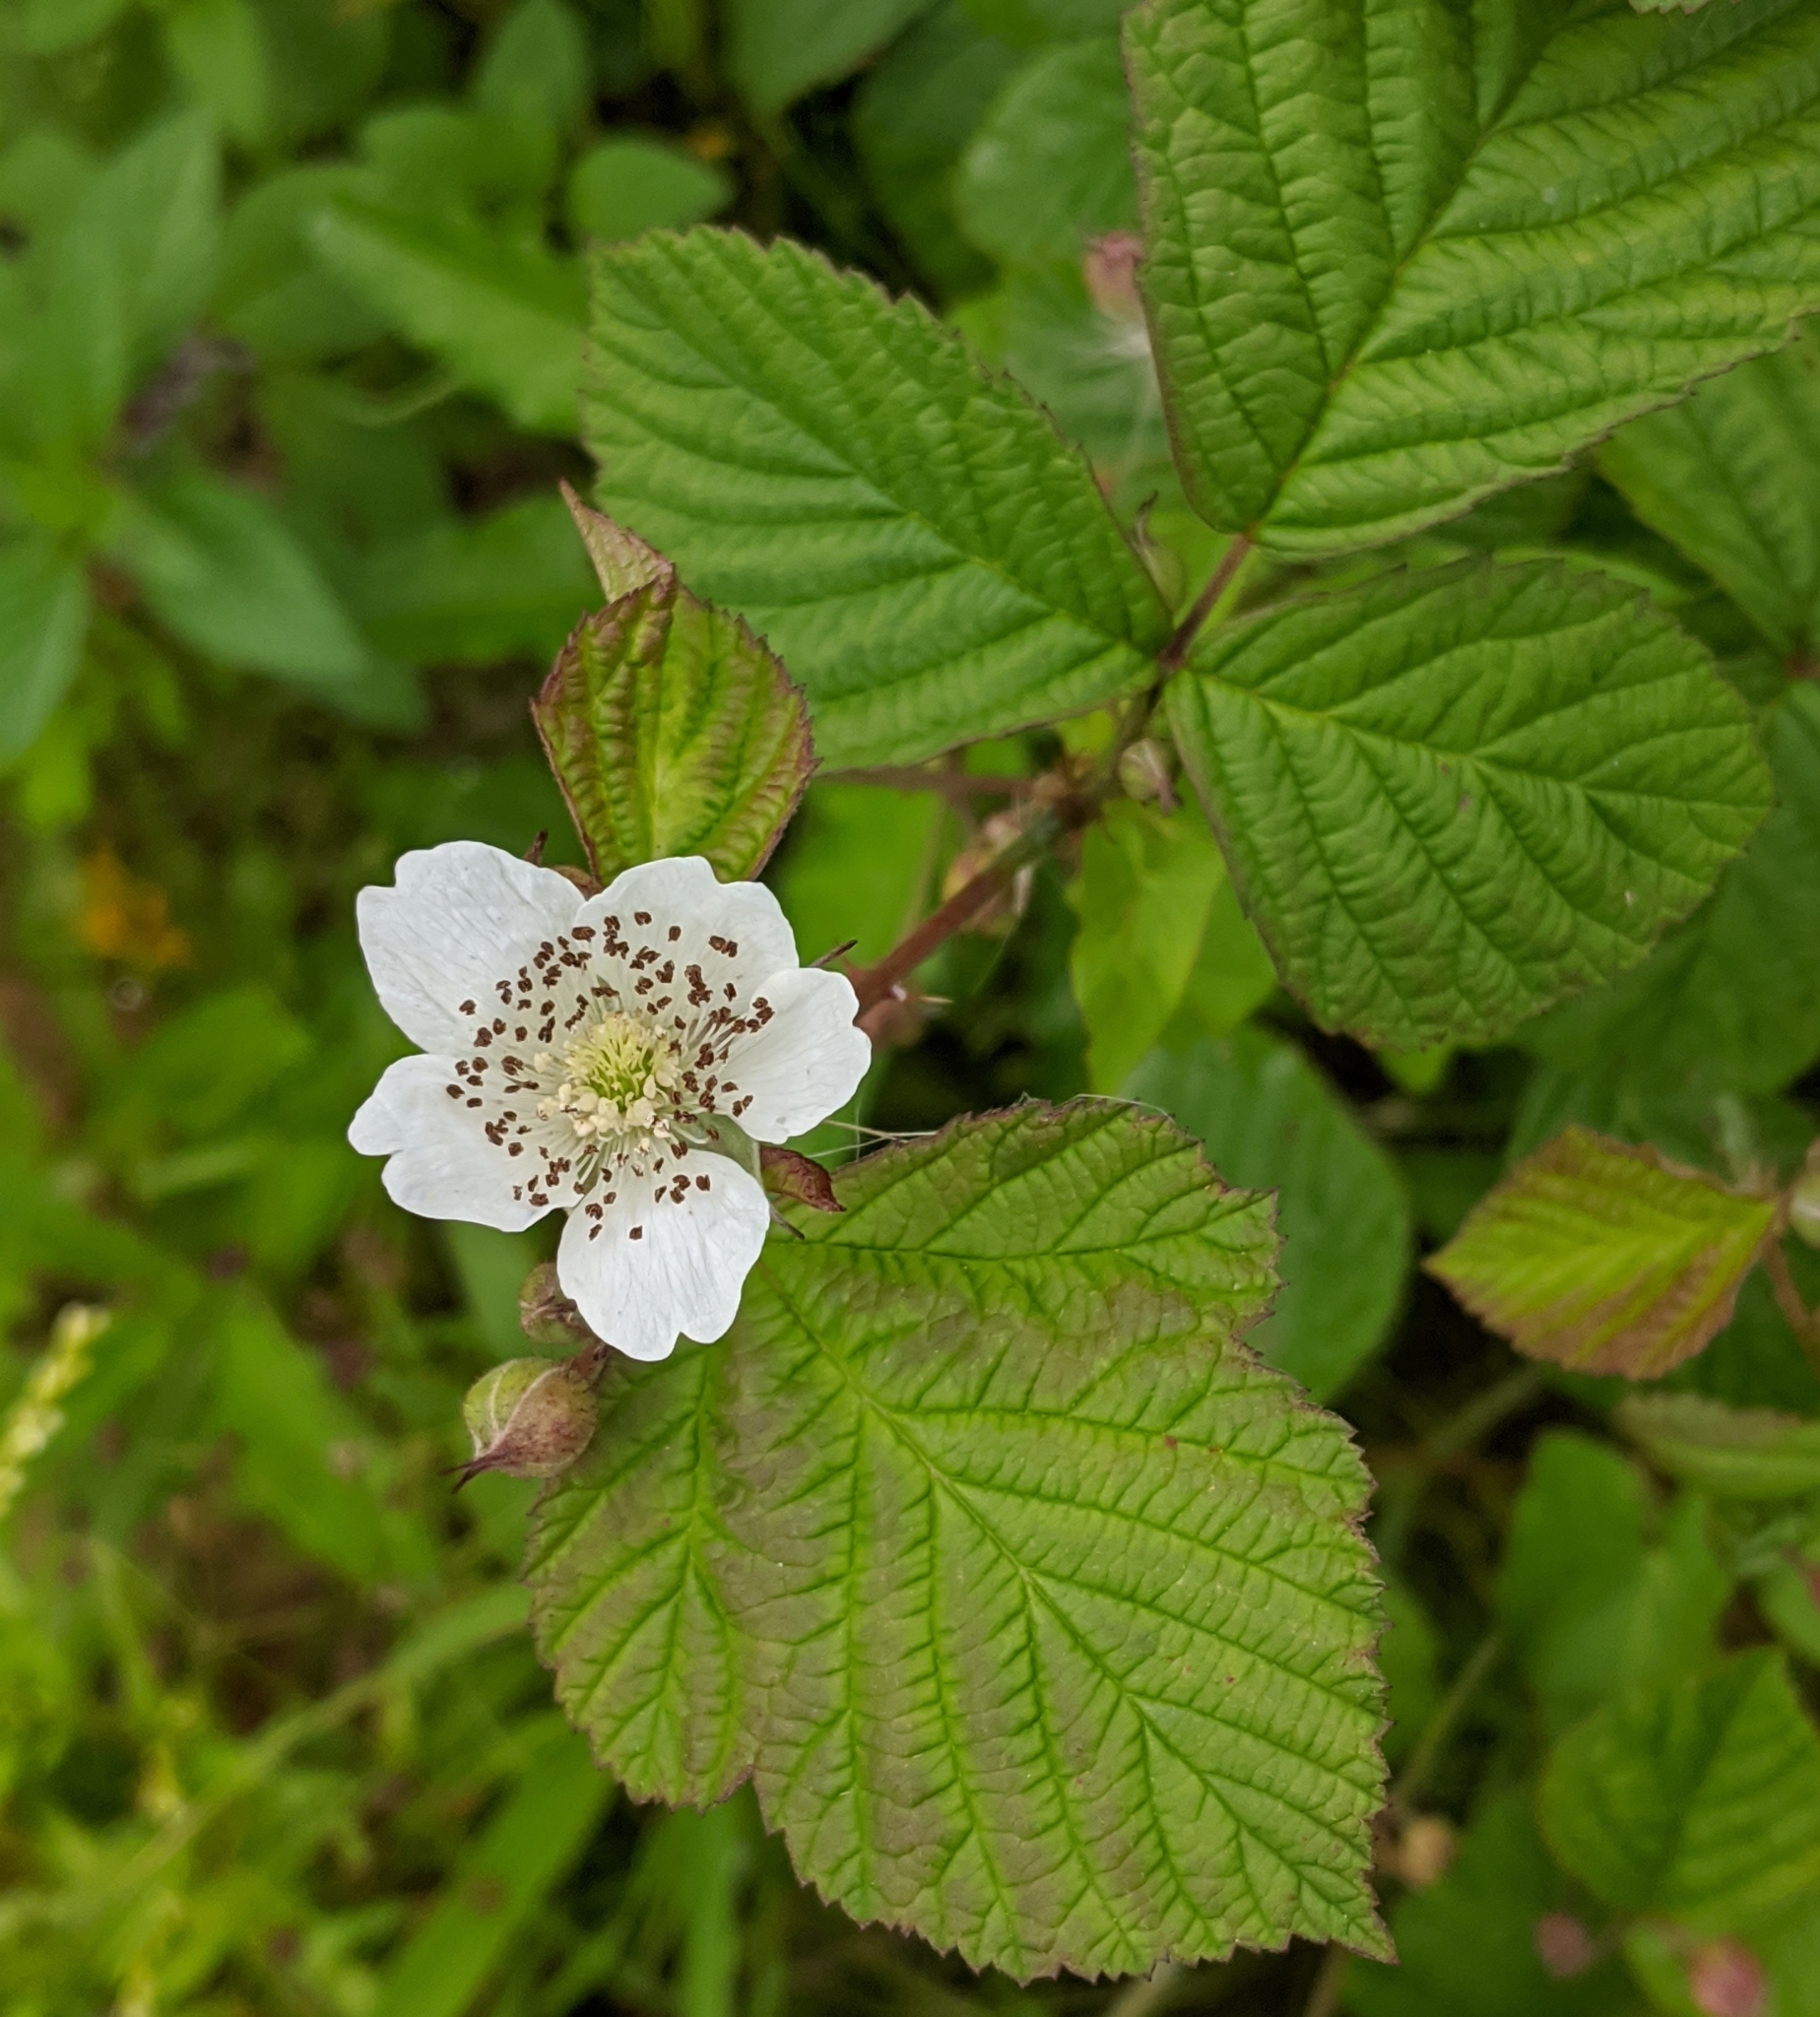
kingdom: Plantae
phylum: Tracheophyta
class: Magnoliopsida
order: Rosales
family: Rosaceae
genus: Rubus
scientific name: Rubus caesius
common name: Dewberry
